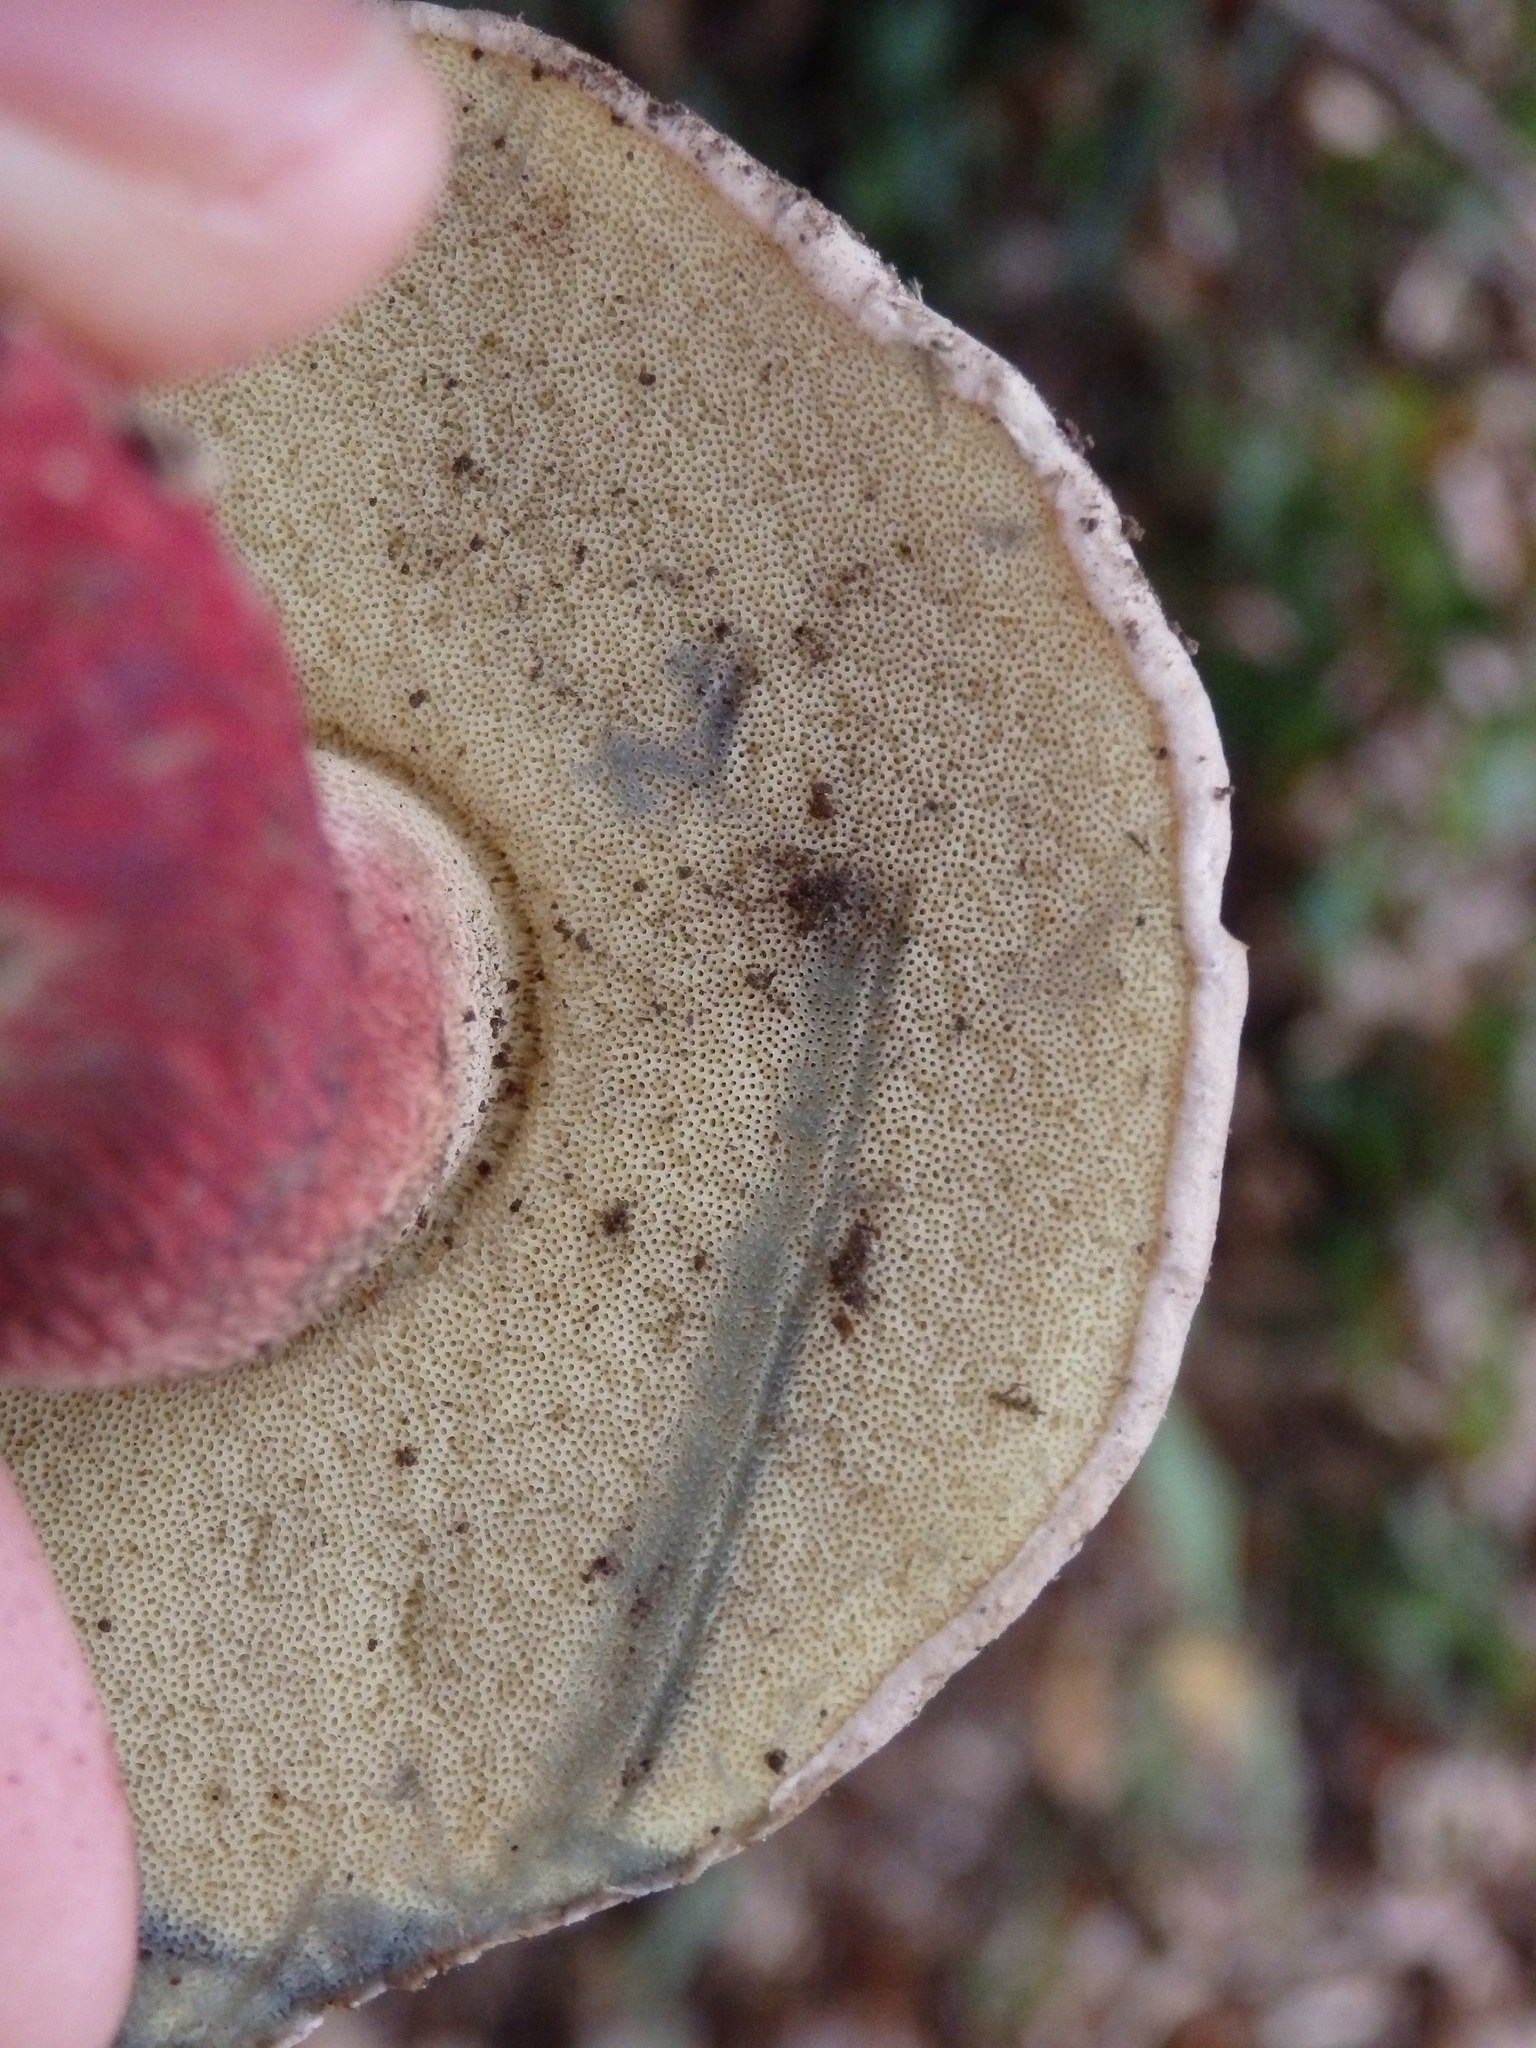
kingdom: Fungi
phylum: Basidiomycota
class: Agaricomycetes
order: Boletales
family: Boletaceae
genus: Caloboletus
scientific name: Caloboletus calopus
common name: Bitter beech bolete
